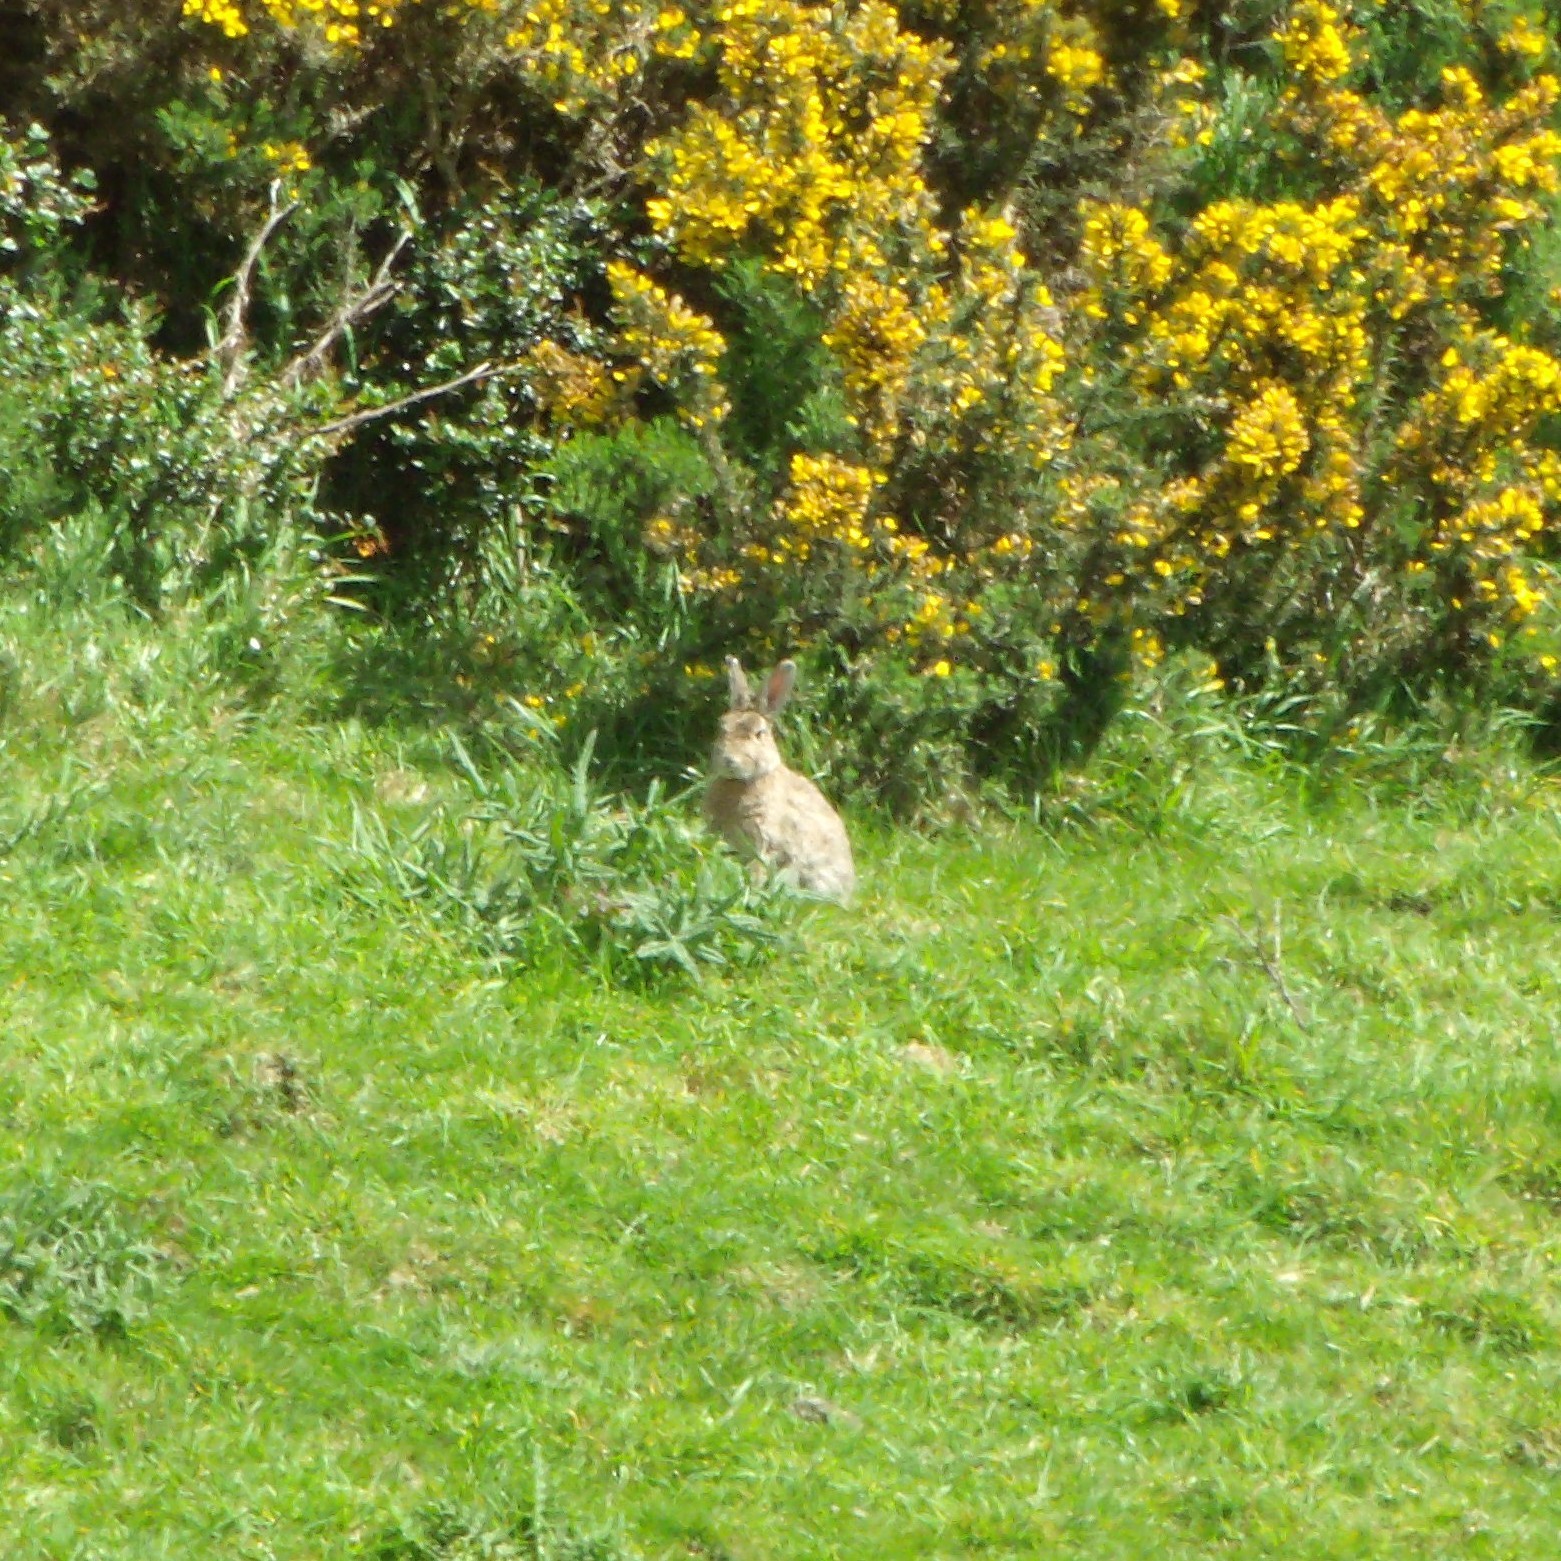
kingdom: Animalia
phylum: Chordata
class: Mammalia
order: Lagomorpha
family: Leporidae
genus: Oryctolagus
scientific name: Oryctolagus cuniculus
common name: European rabbit
